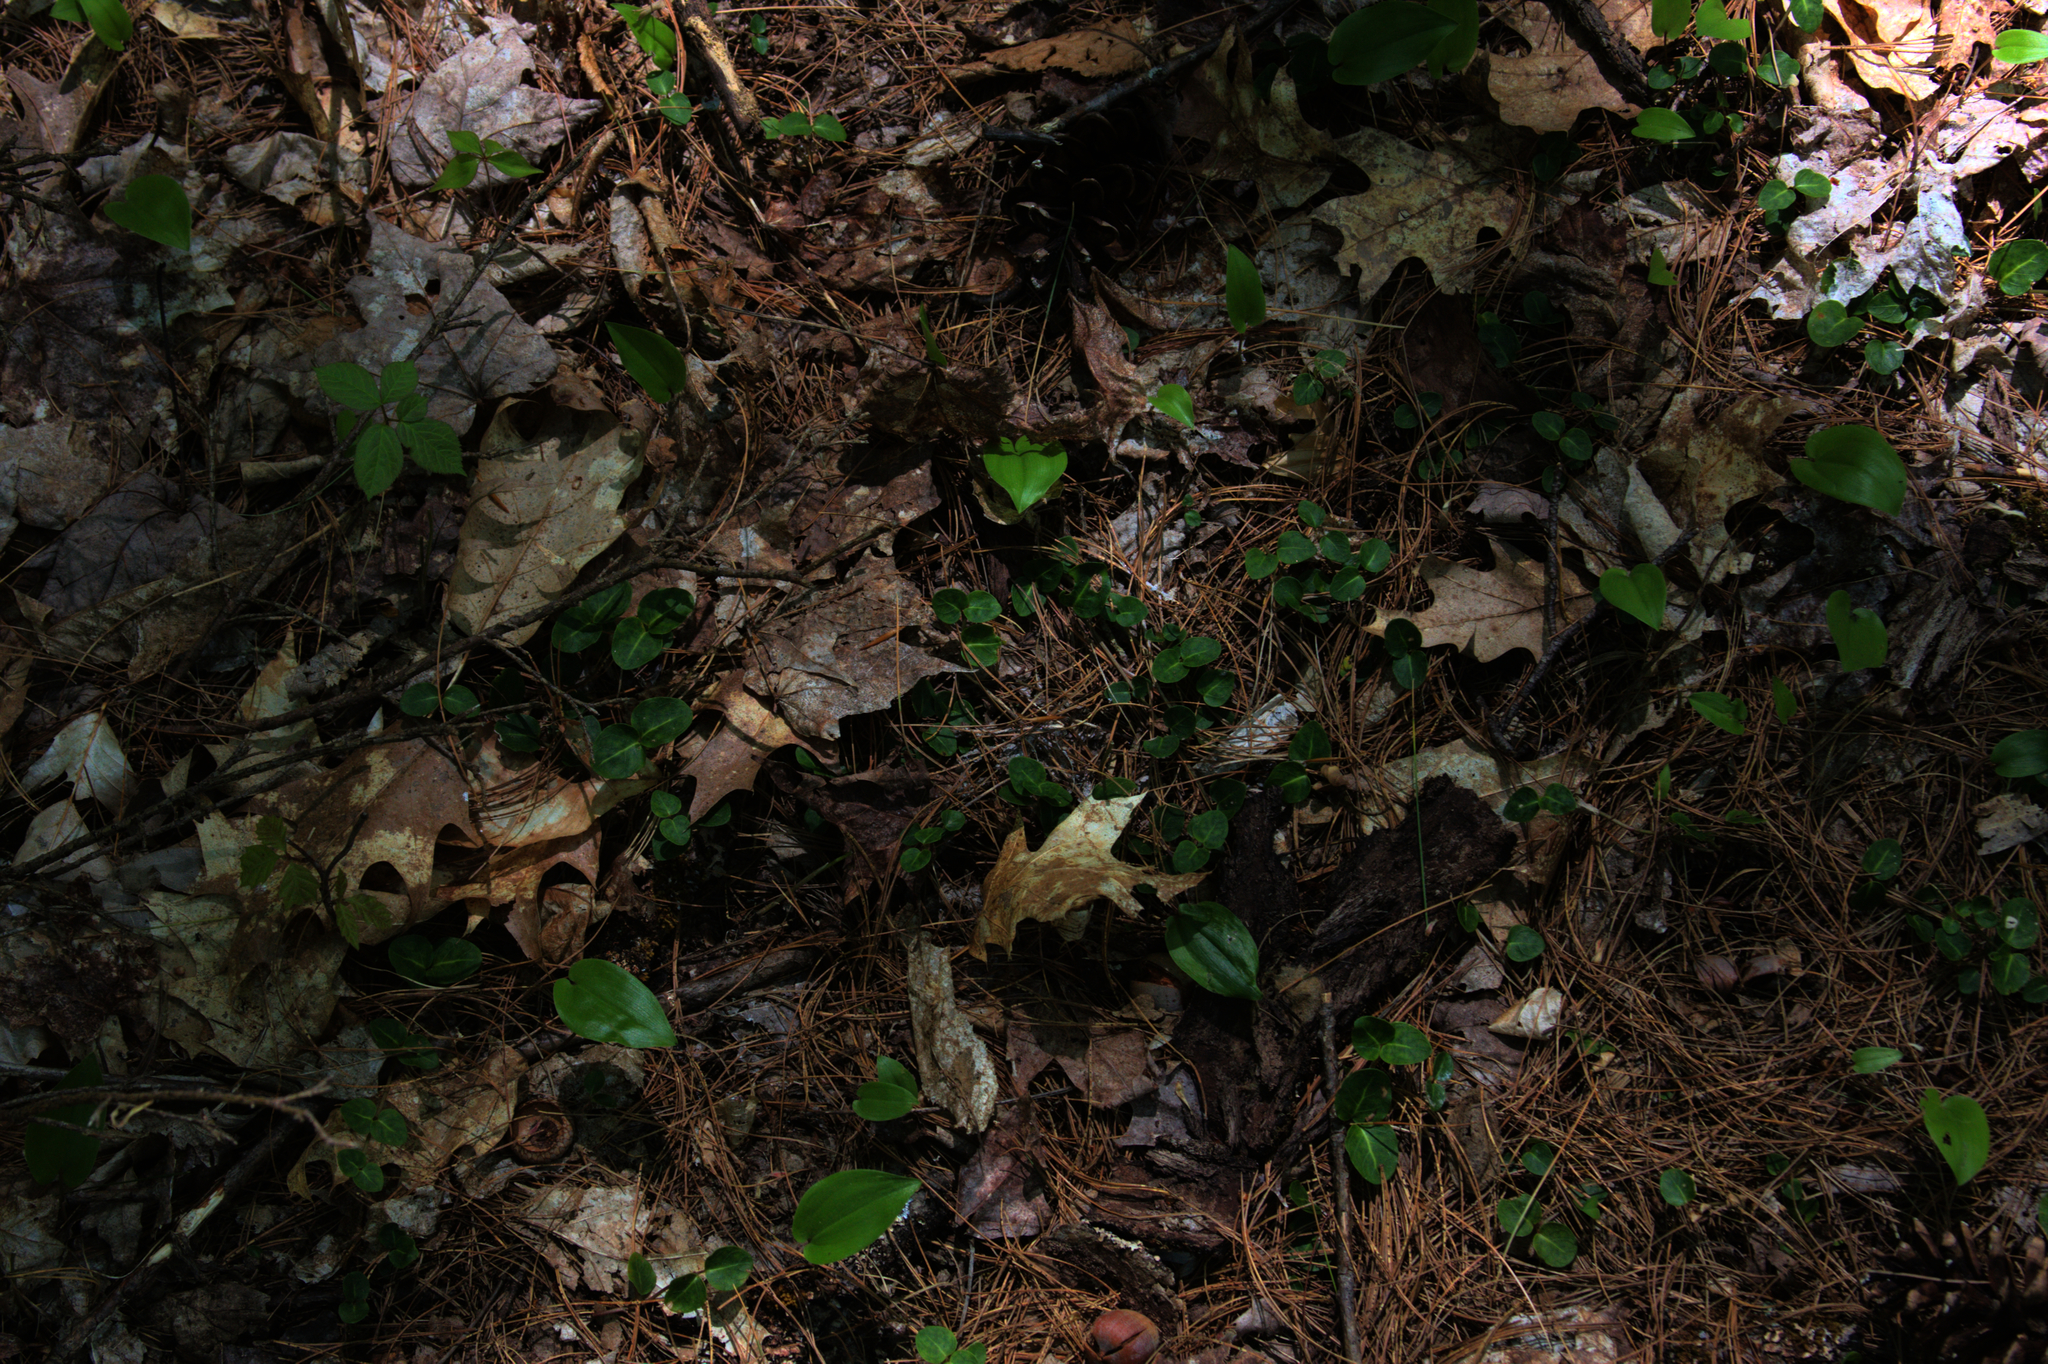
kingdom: Plantae
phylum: Tracheophyta
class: Magnoliopsida
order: Gentianales
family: Rubiaceae
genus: Mitchella
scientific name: Mitchella repens
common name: Partridge-berry
